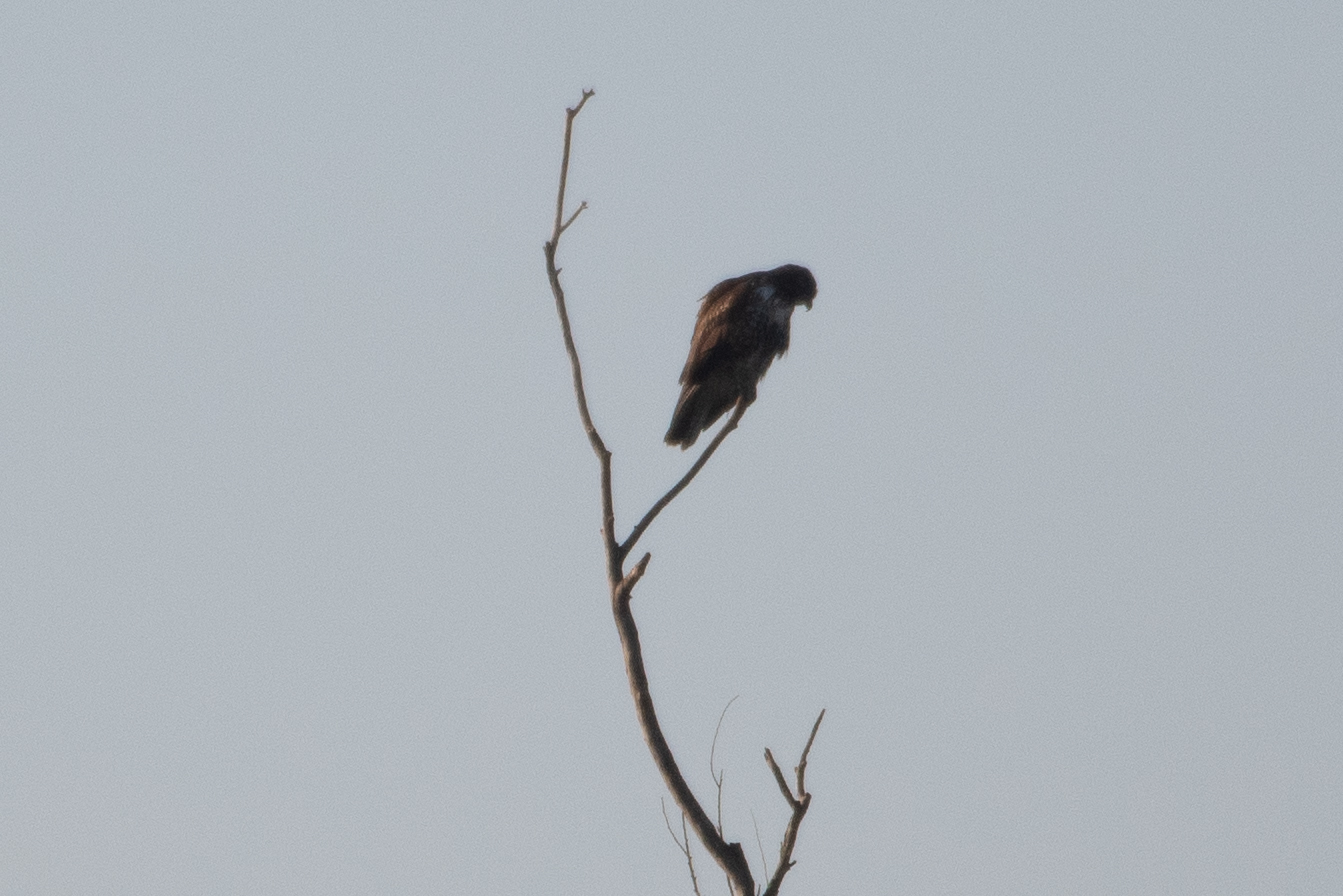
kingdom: Animalia
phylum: Chordata
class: Aves
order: Accipitriformes
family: Accipitridae
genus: Buteo
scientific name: Buteo jamaicensis
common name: Red-tailed hawk
